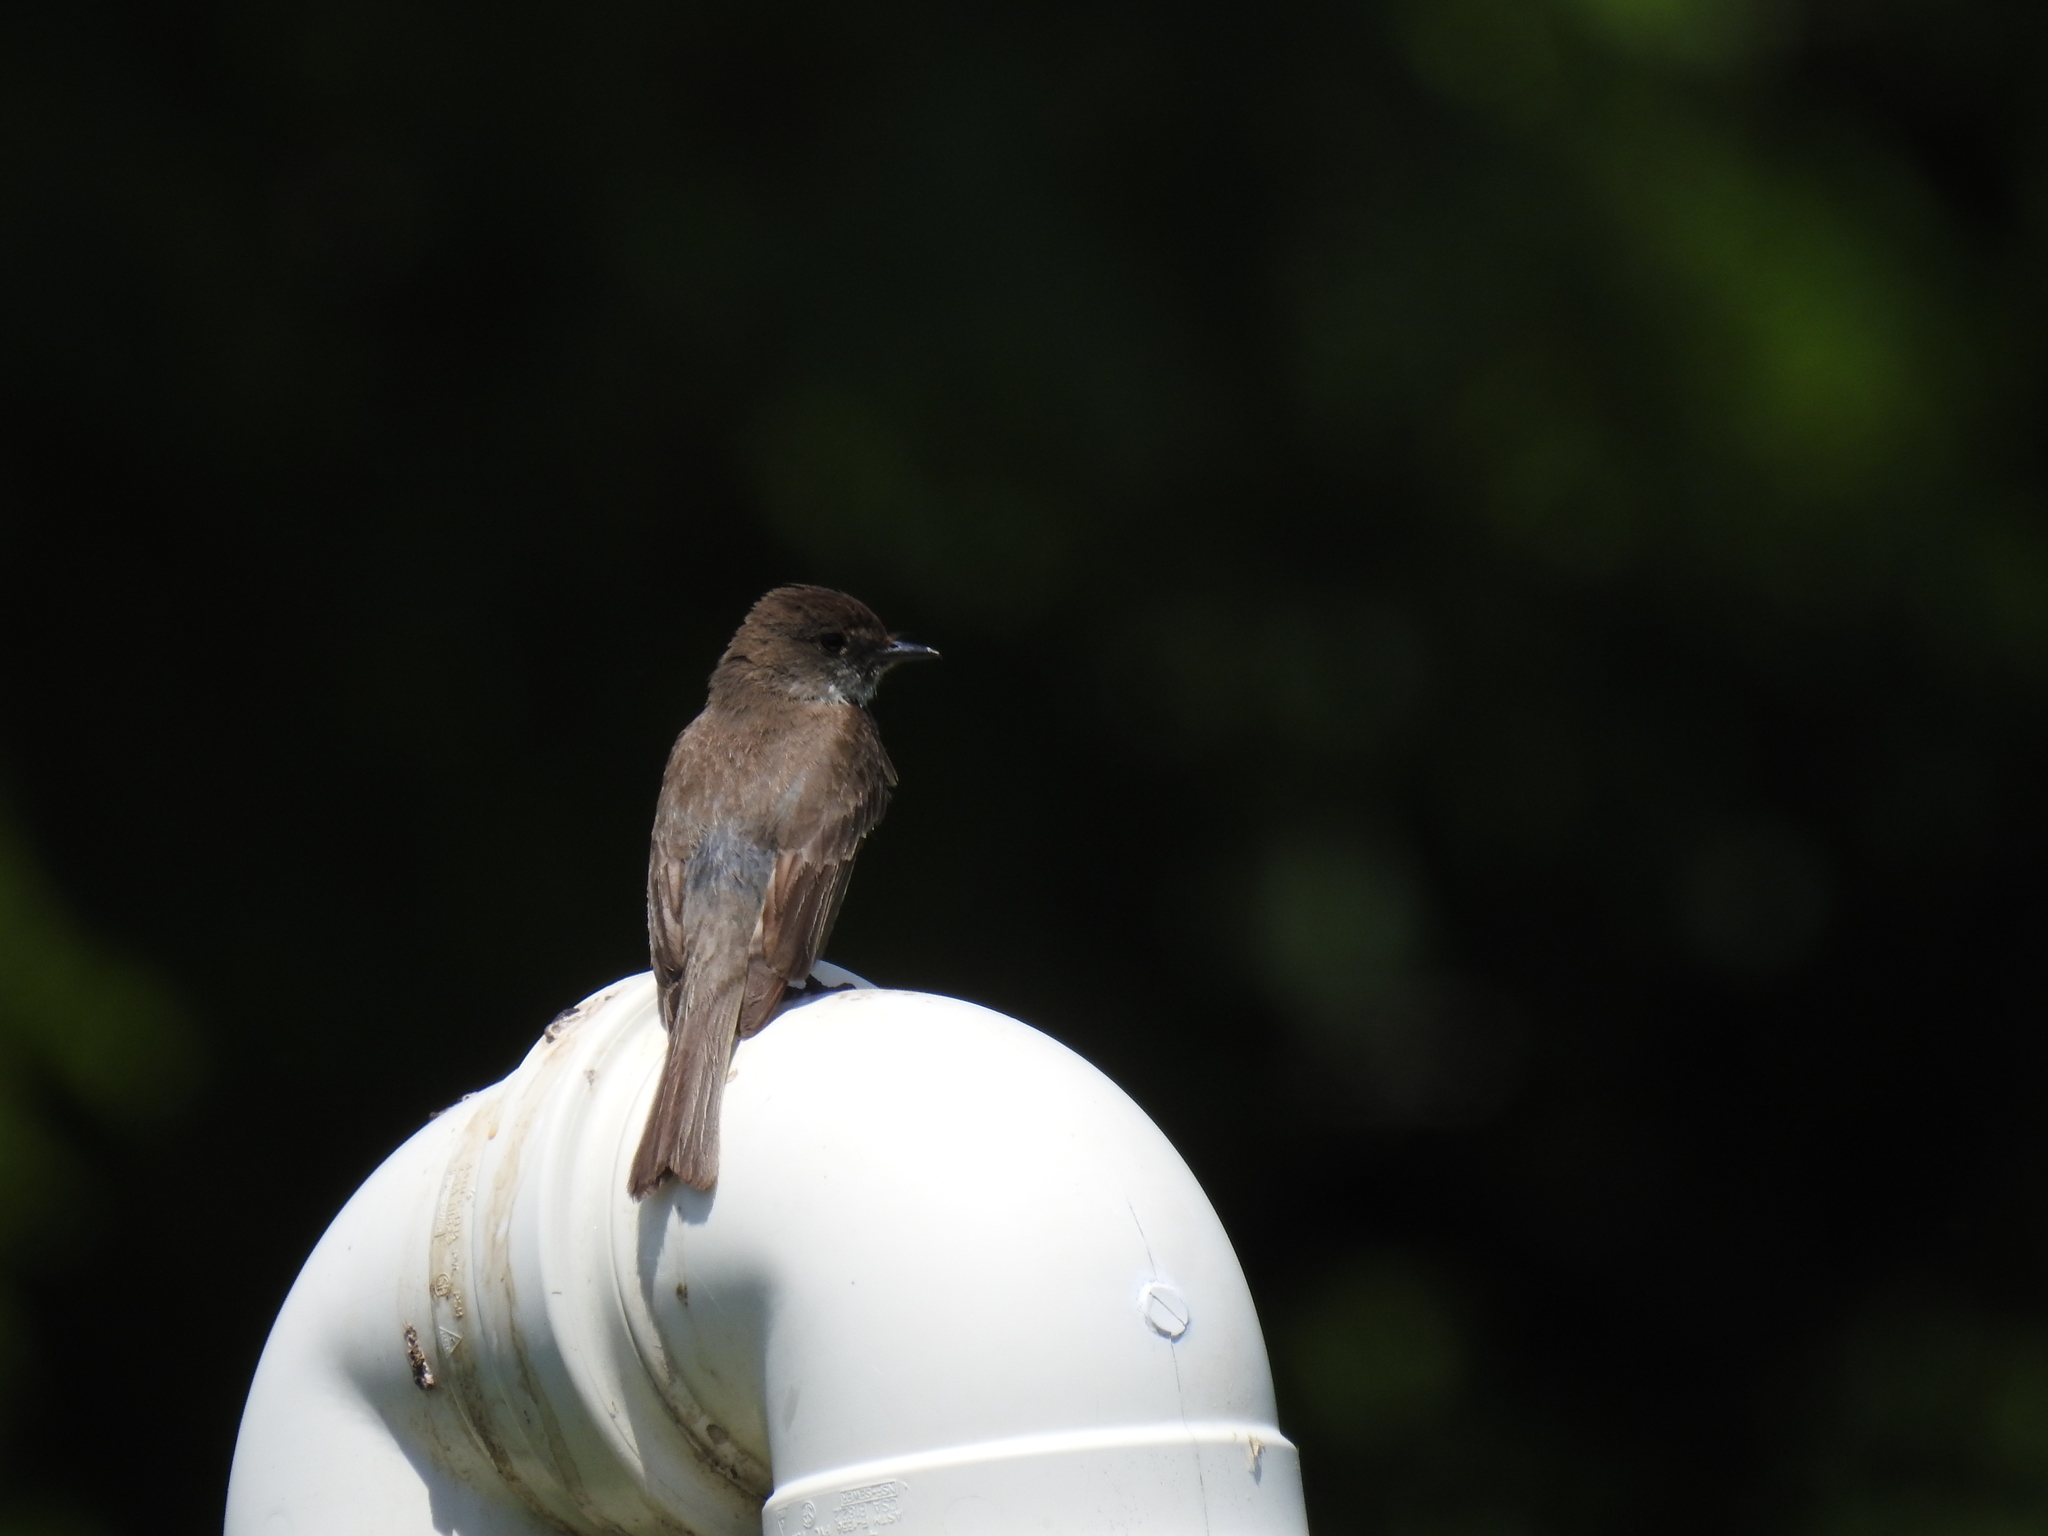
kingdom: Animalia
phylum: Chordata
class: Aves
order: Passeriformes
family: Tyrannidae
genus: Sayornis
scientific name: Sayornis phoebe
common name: Eastern phoebe
